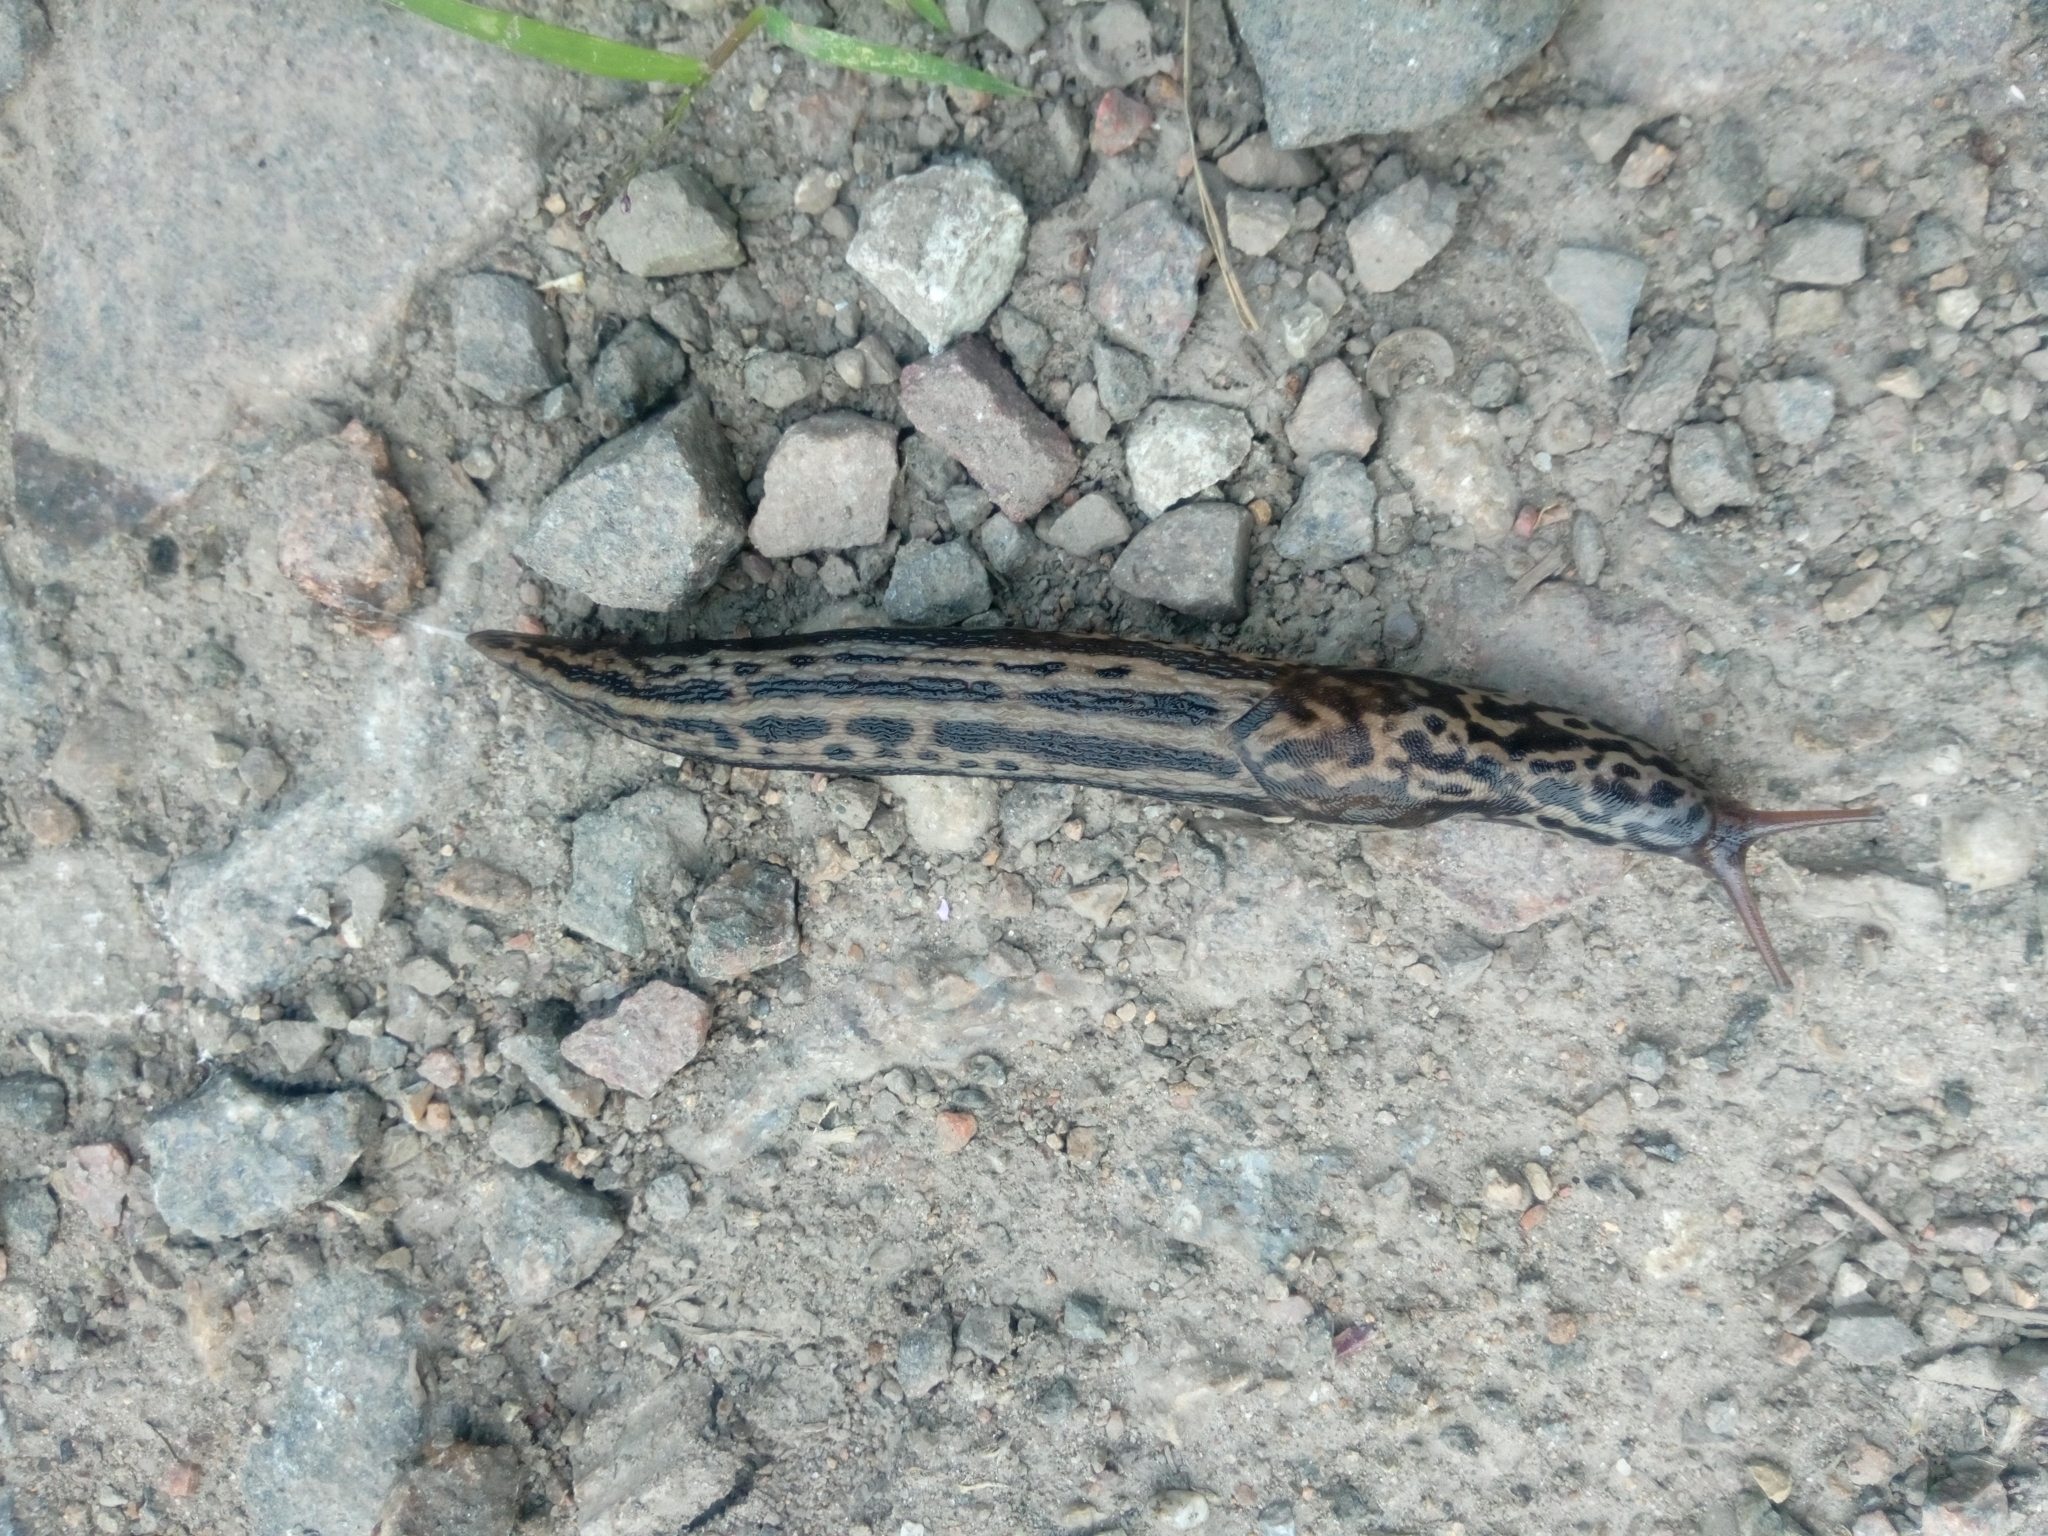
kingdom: Animalia
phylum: Mollusca
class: Gastropoda
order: Stylommatophora
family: Limacidae
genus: Limax
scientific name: Limax maximus
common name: Great grey slug
